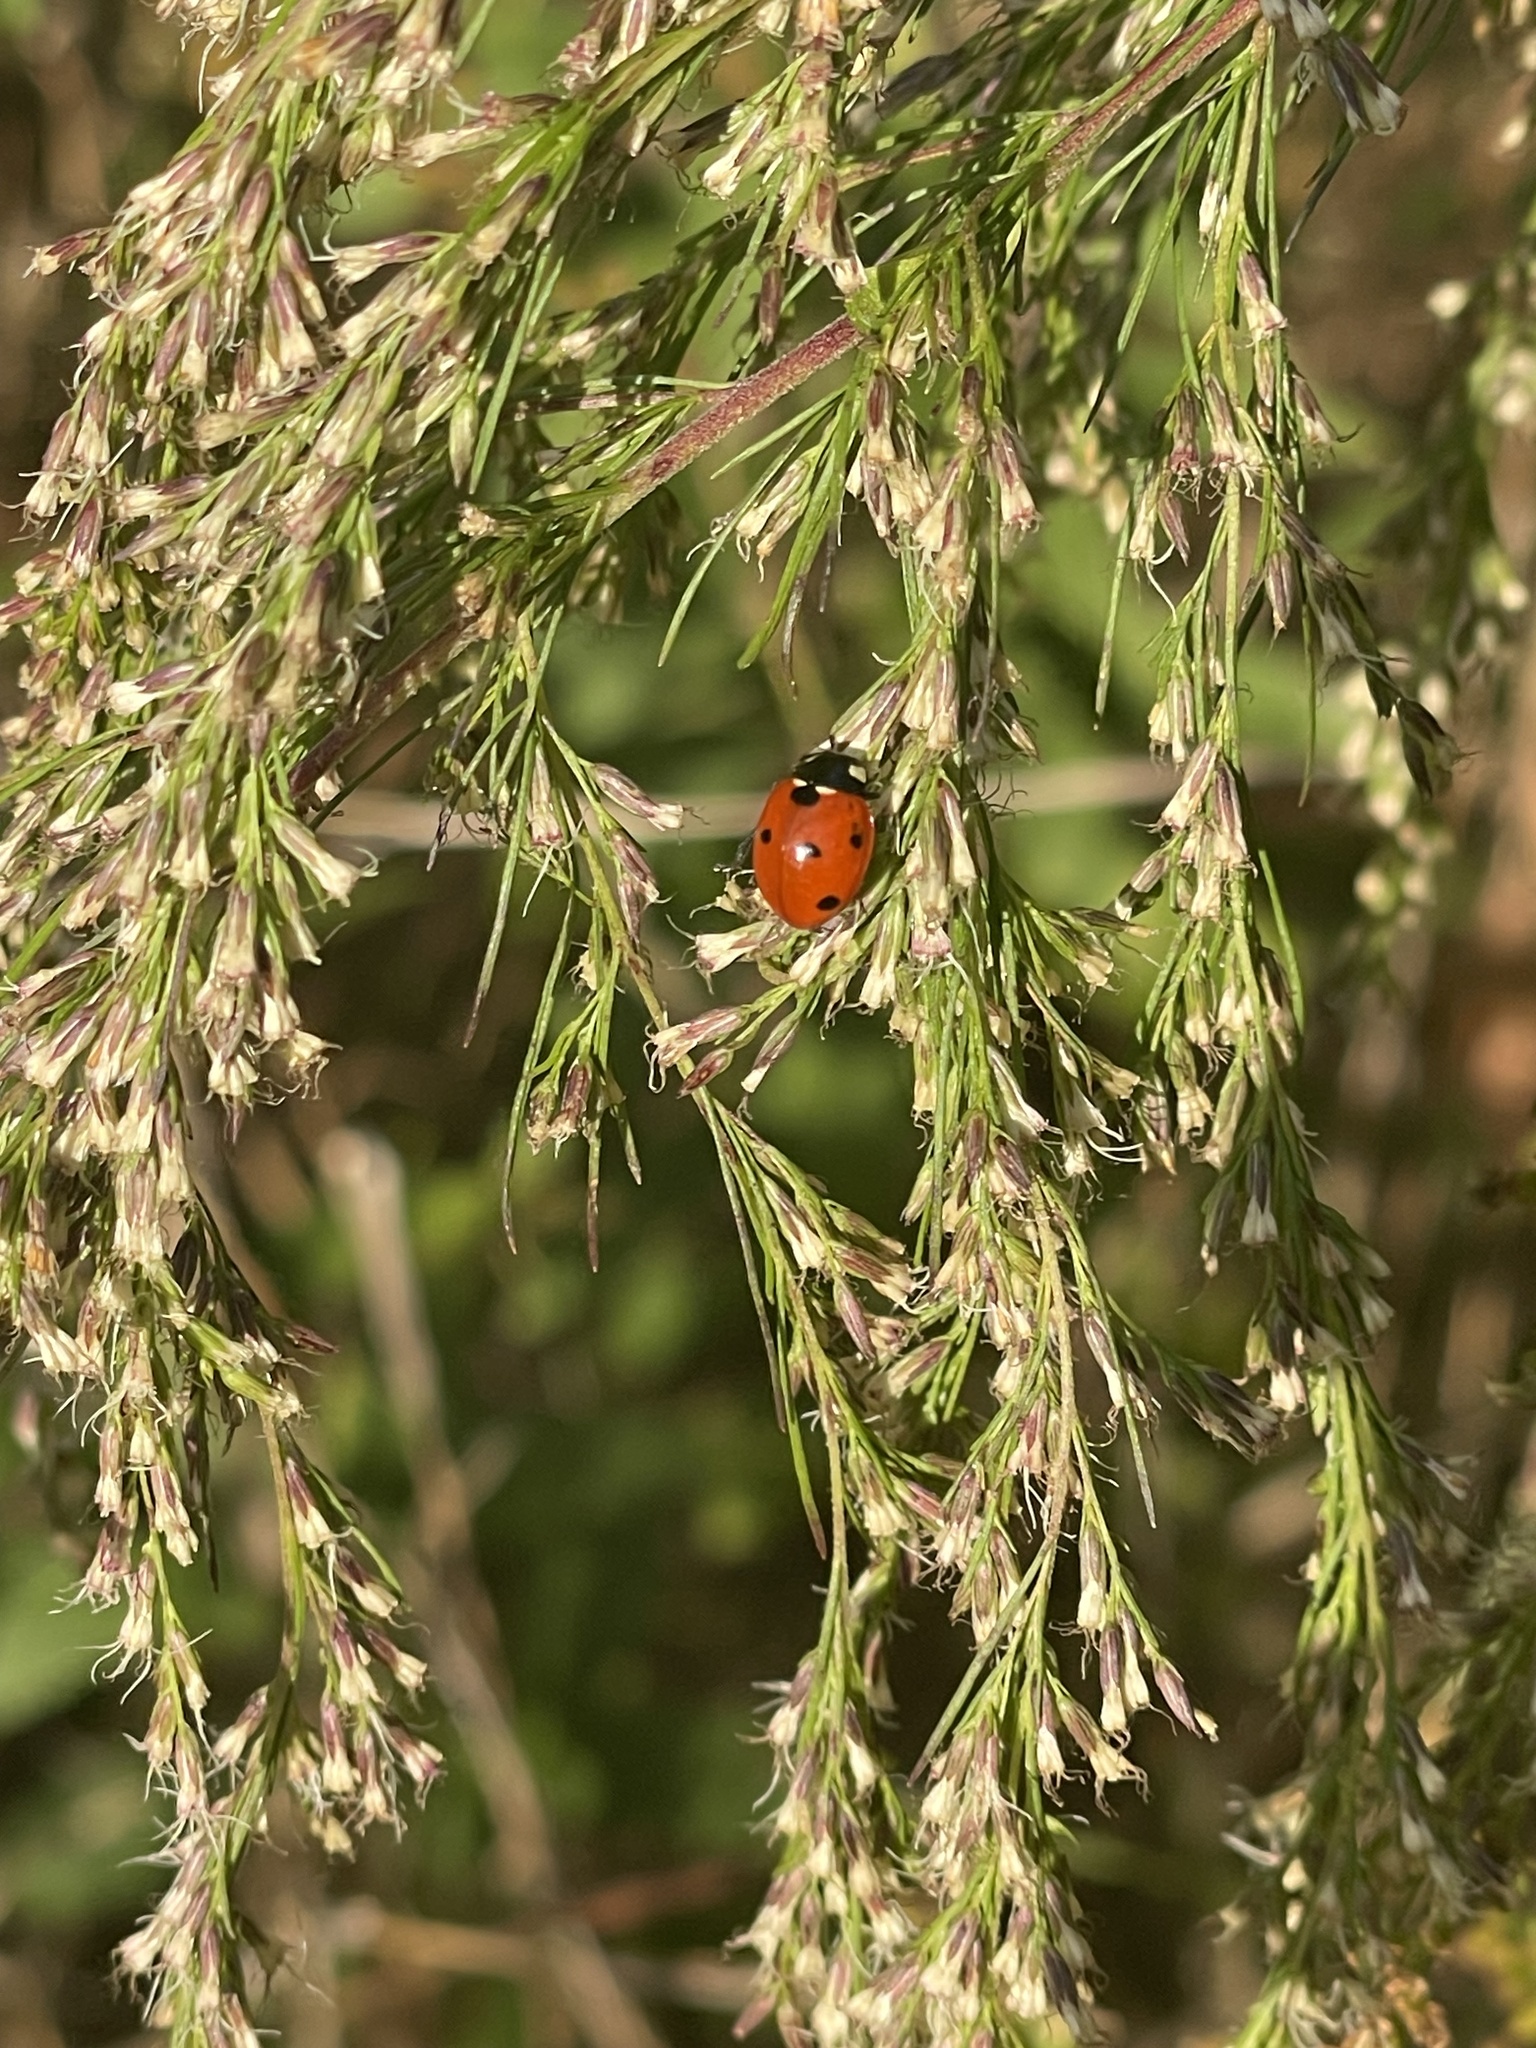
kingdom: Animalia
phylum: Arthropoda
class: Insecta
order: Coleoptera
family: Coccinellidae
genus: Coccinella
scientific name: Coccinella septempunctata
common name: Sevenspotted lady beetle
